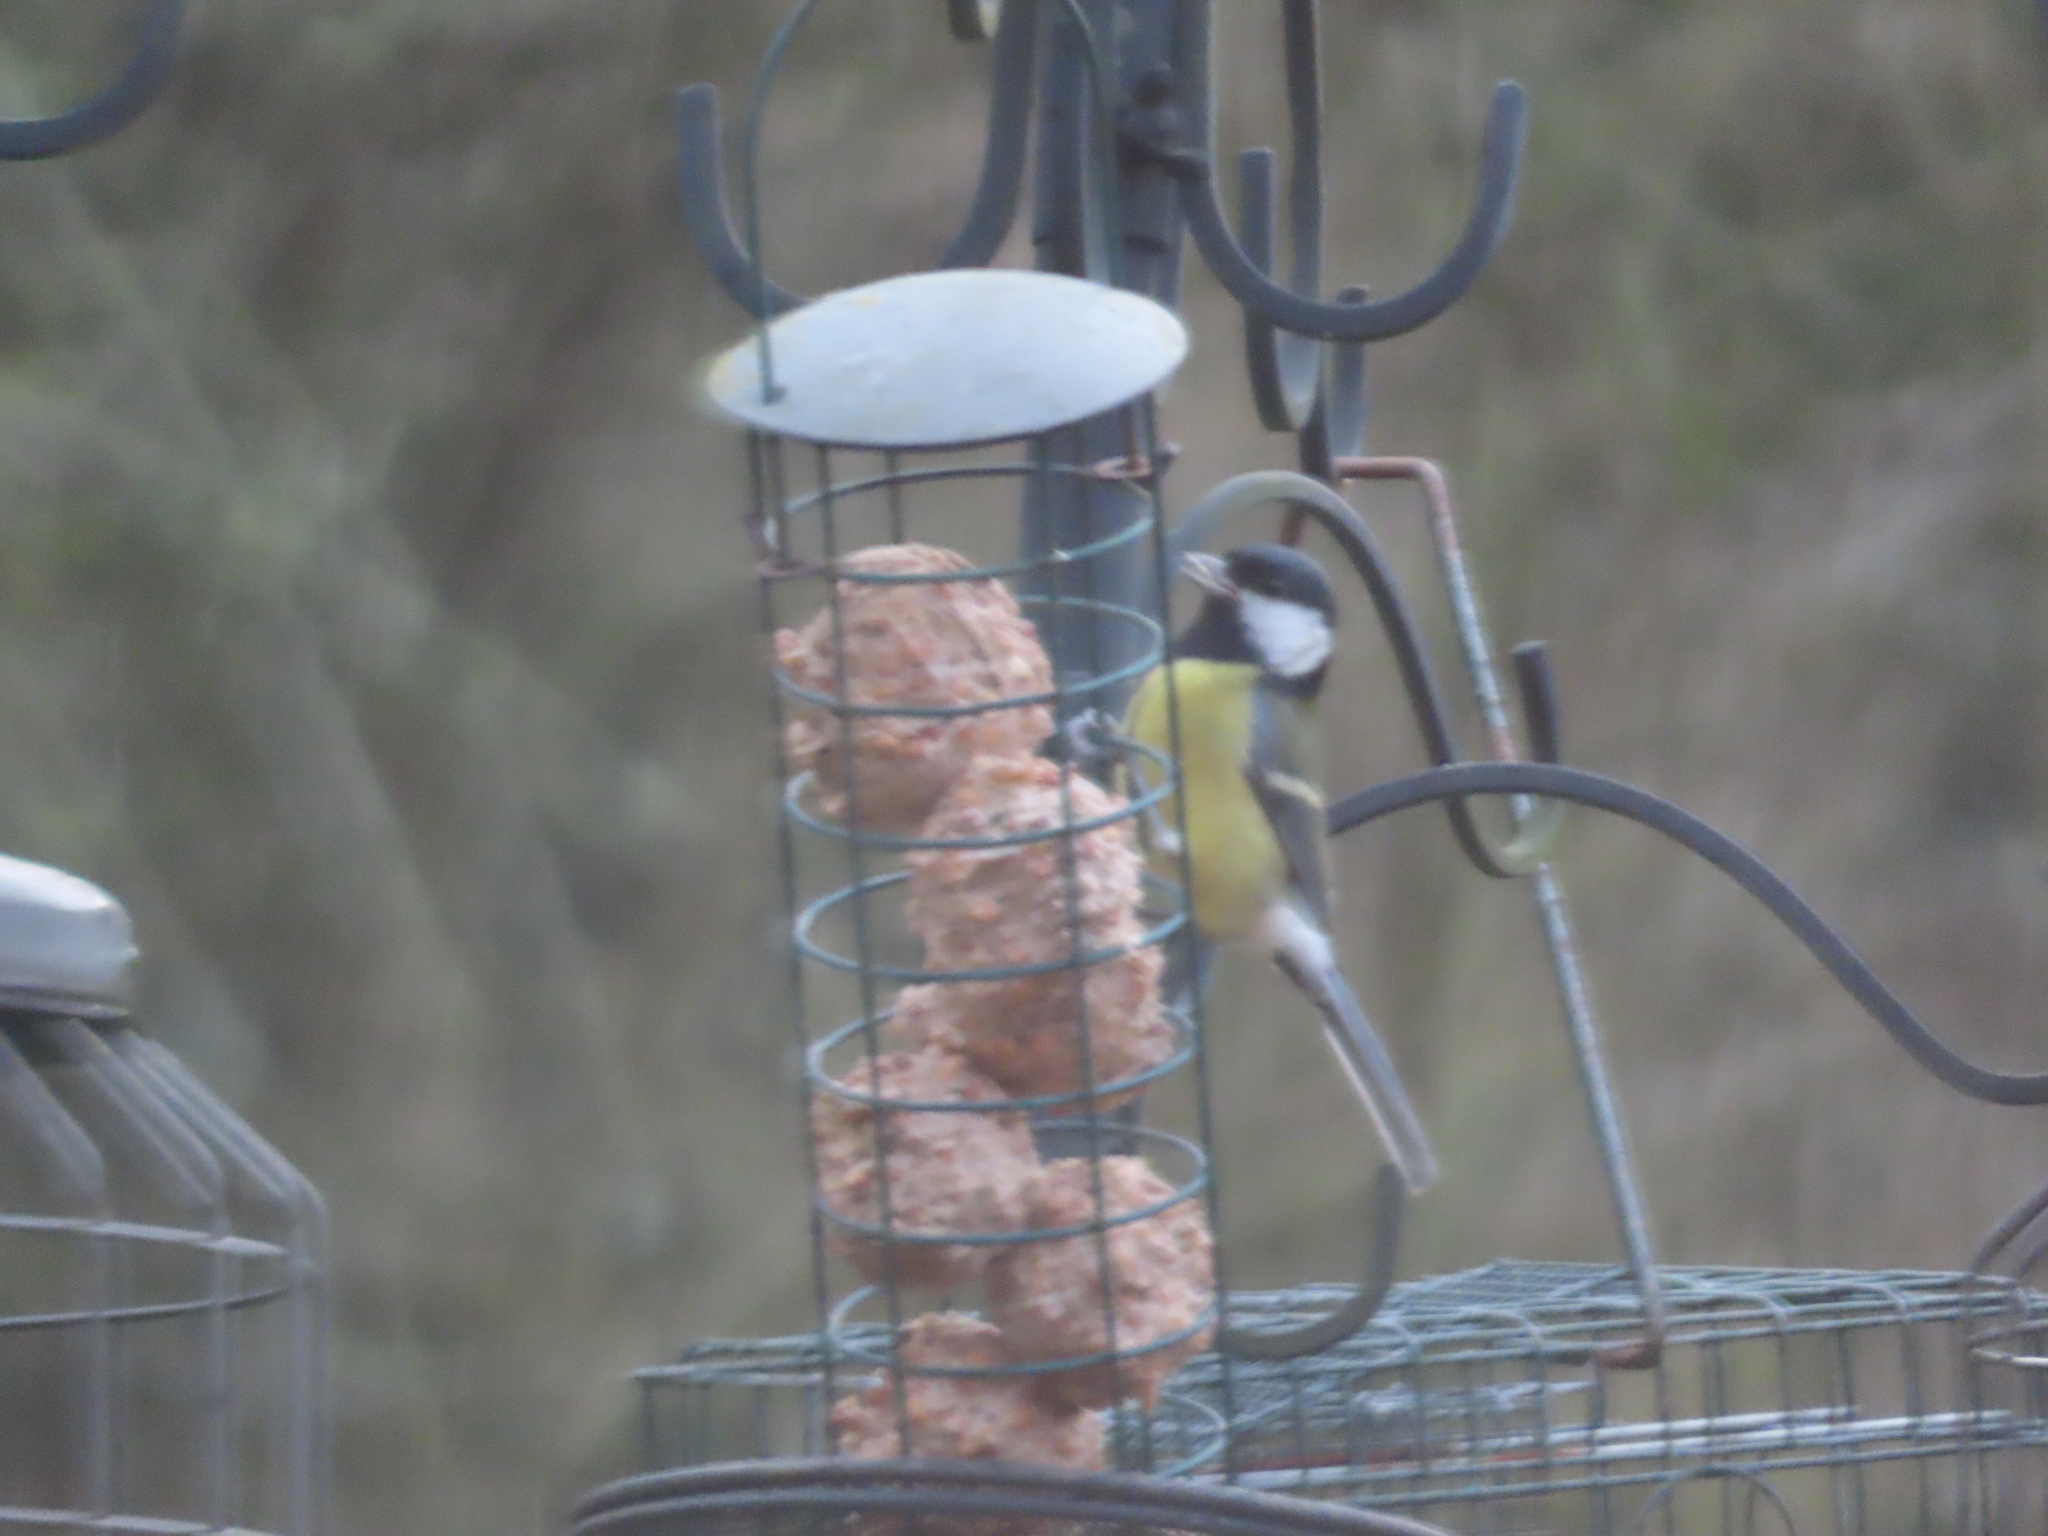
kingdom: Animalia
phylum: Chordata
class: Aves
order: Passeriformes
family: Paridae
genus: Parus
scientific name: Parus major
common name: Great tit
